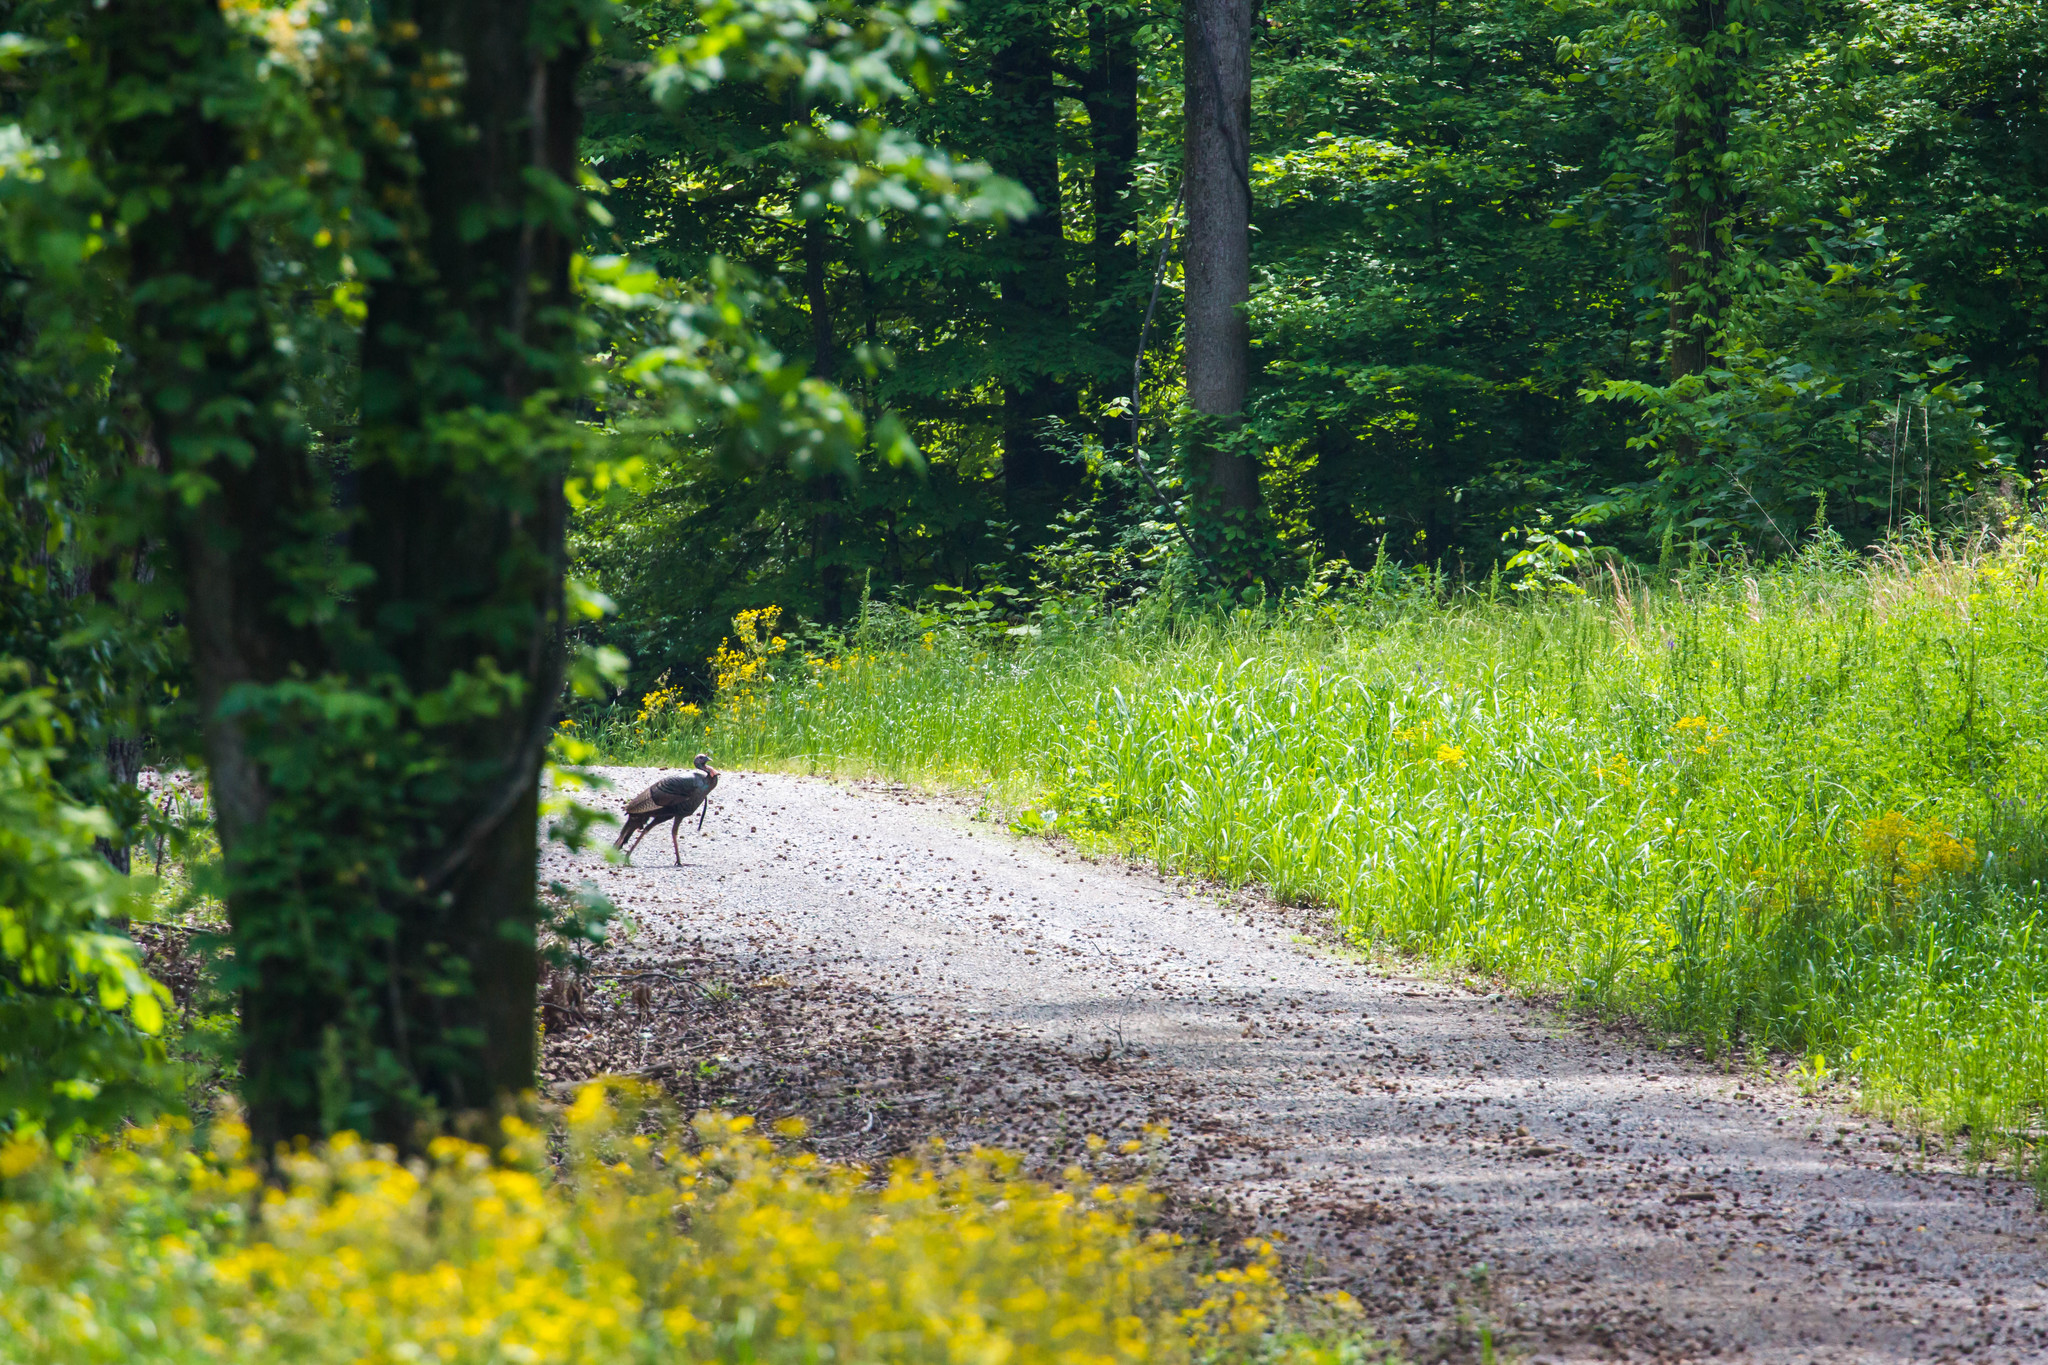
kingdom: Animalia
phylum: Chordata
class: Aves
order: Galliformes
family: Phasianidae
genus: Meleagris
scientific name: Meleagris gallopavo
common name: Wild turkey
